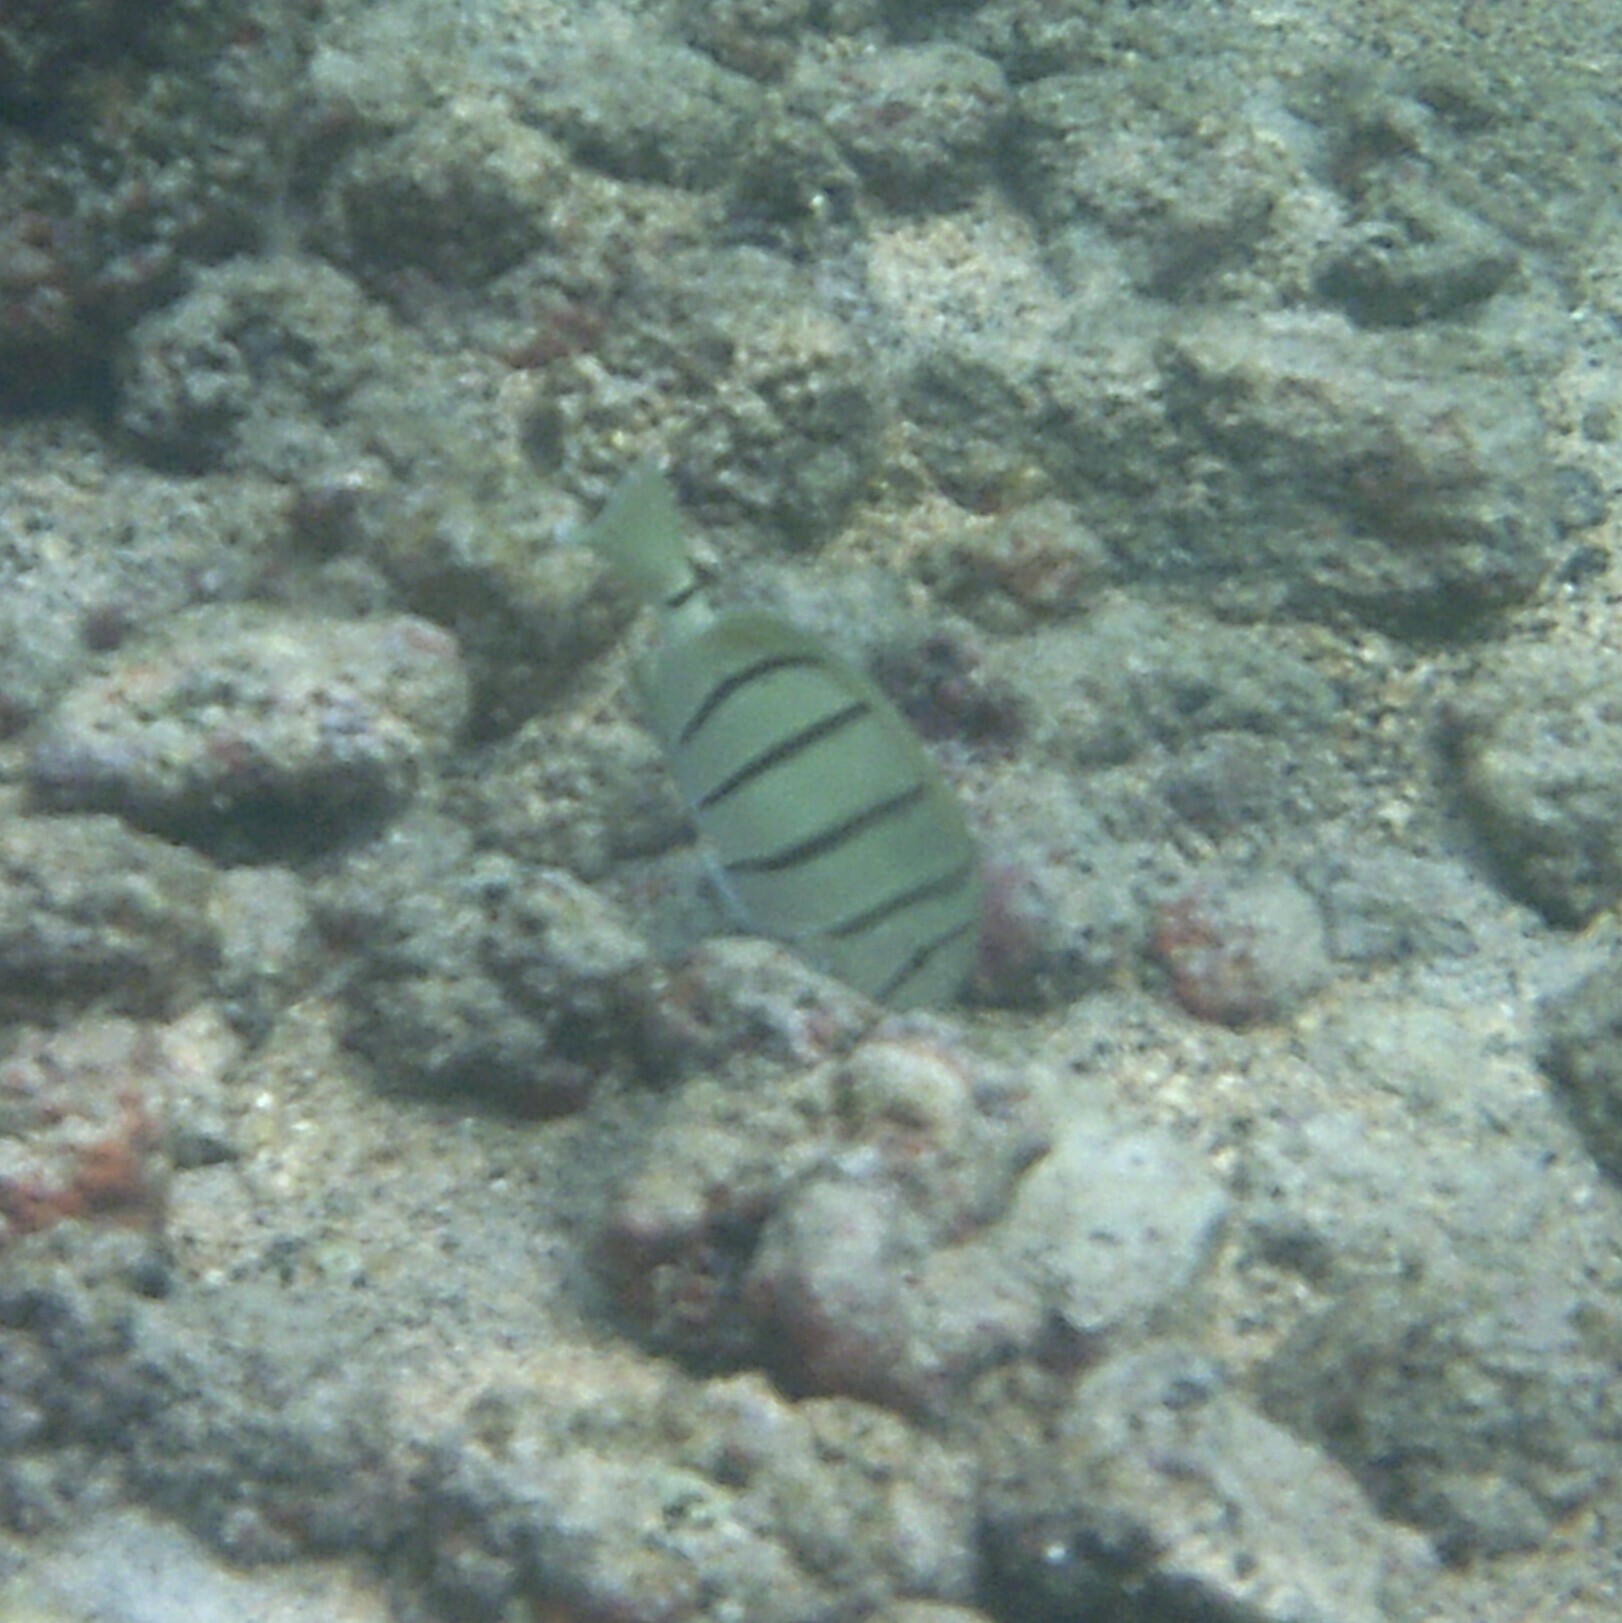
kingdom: Animalia
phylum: Chordata
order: Perciformes
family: Acanthuridae
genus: Acanthurus
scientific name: Acanthurus triostegus
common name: Convict surgeonfish
